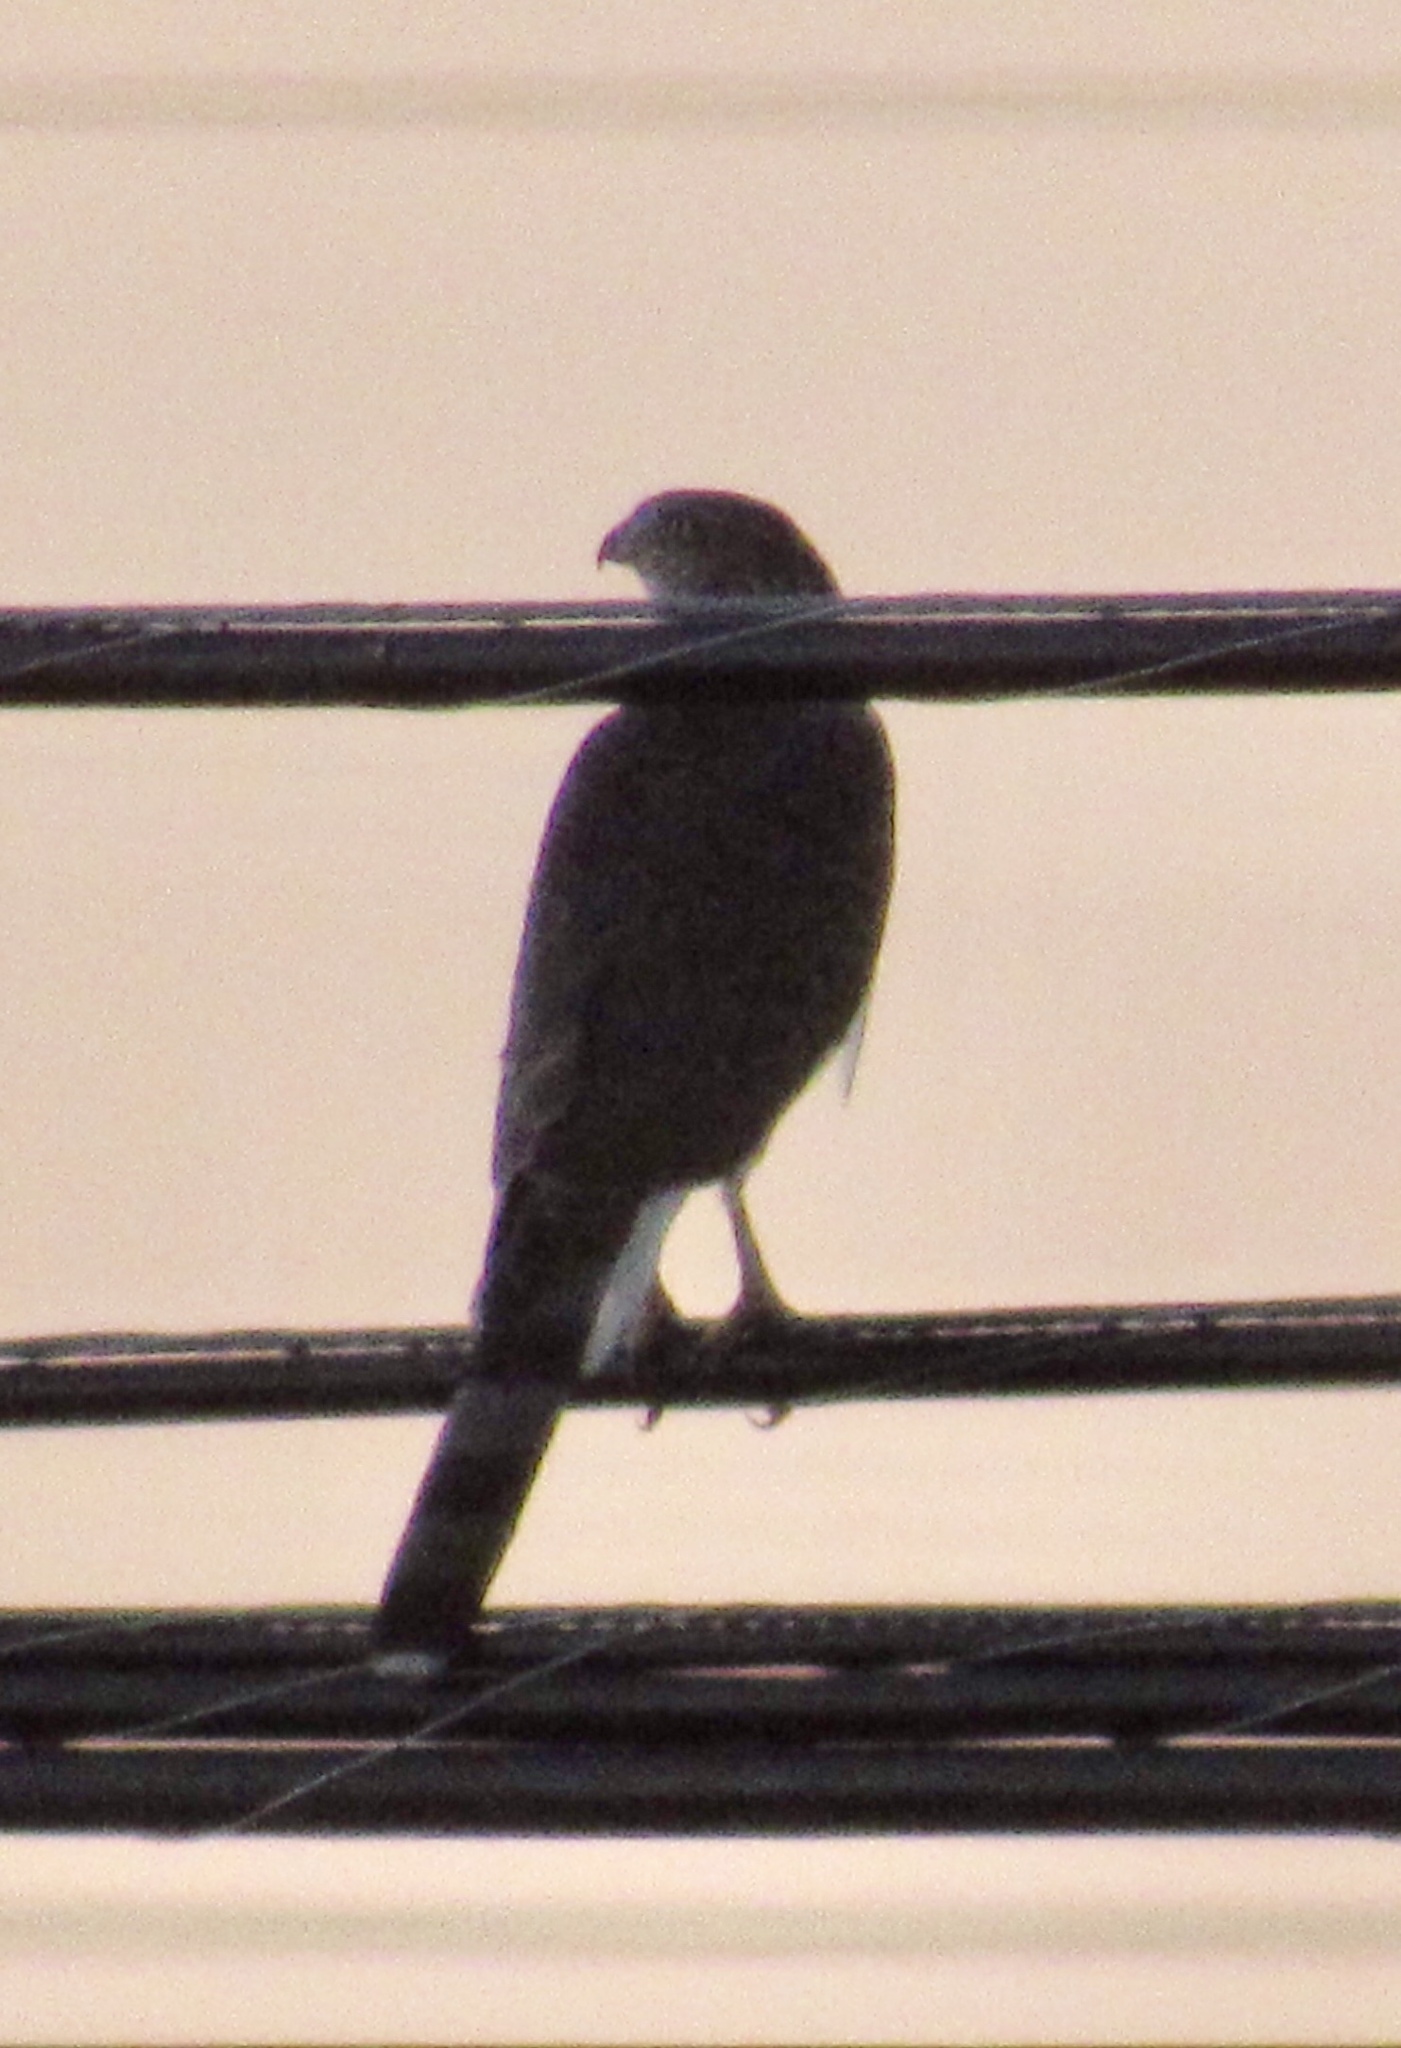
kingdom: Animalia
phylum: Chordata
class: Aves
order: Accipitriformes
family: Accipitridae
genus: Accipiter
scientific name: Accipiter cooperii
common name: Cooper's hawk
